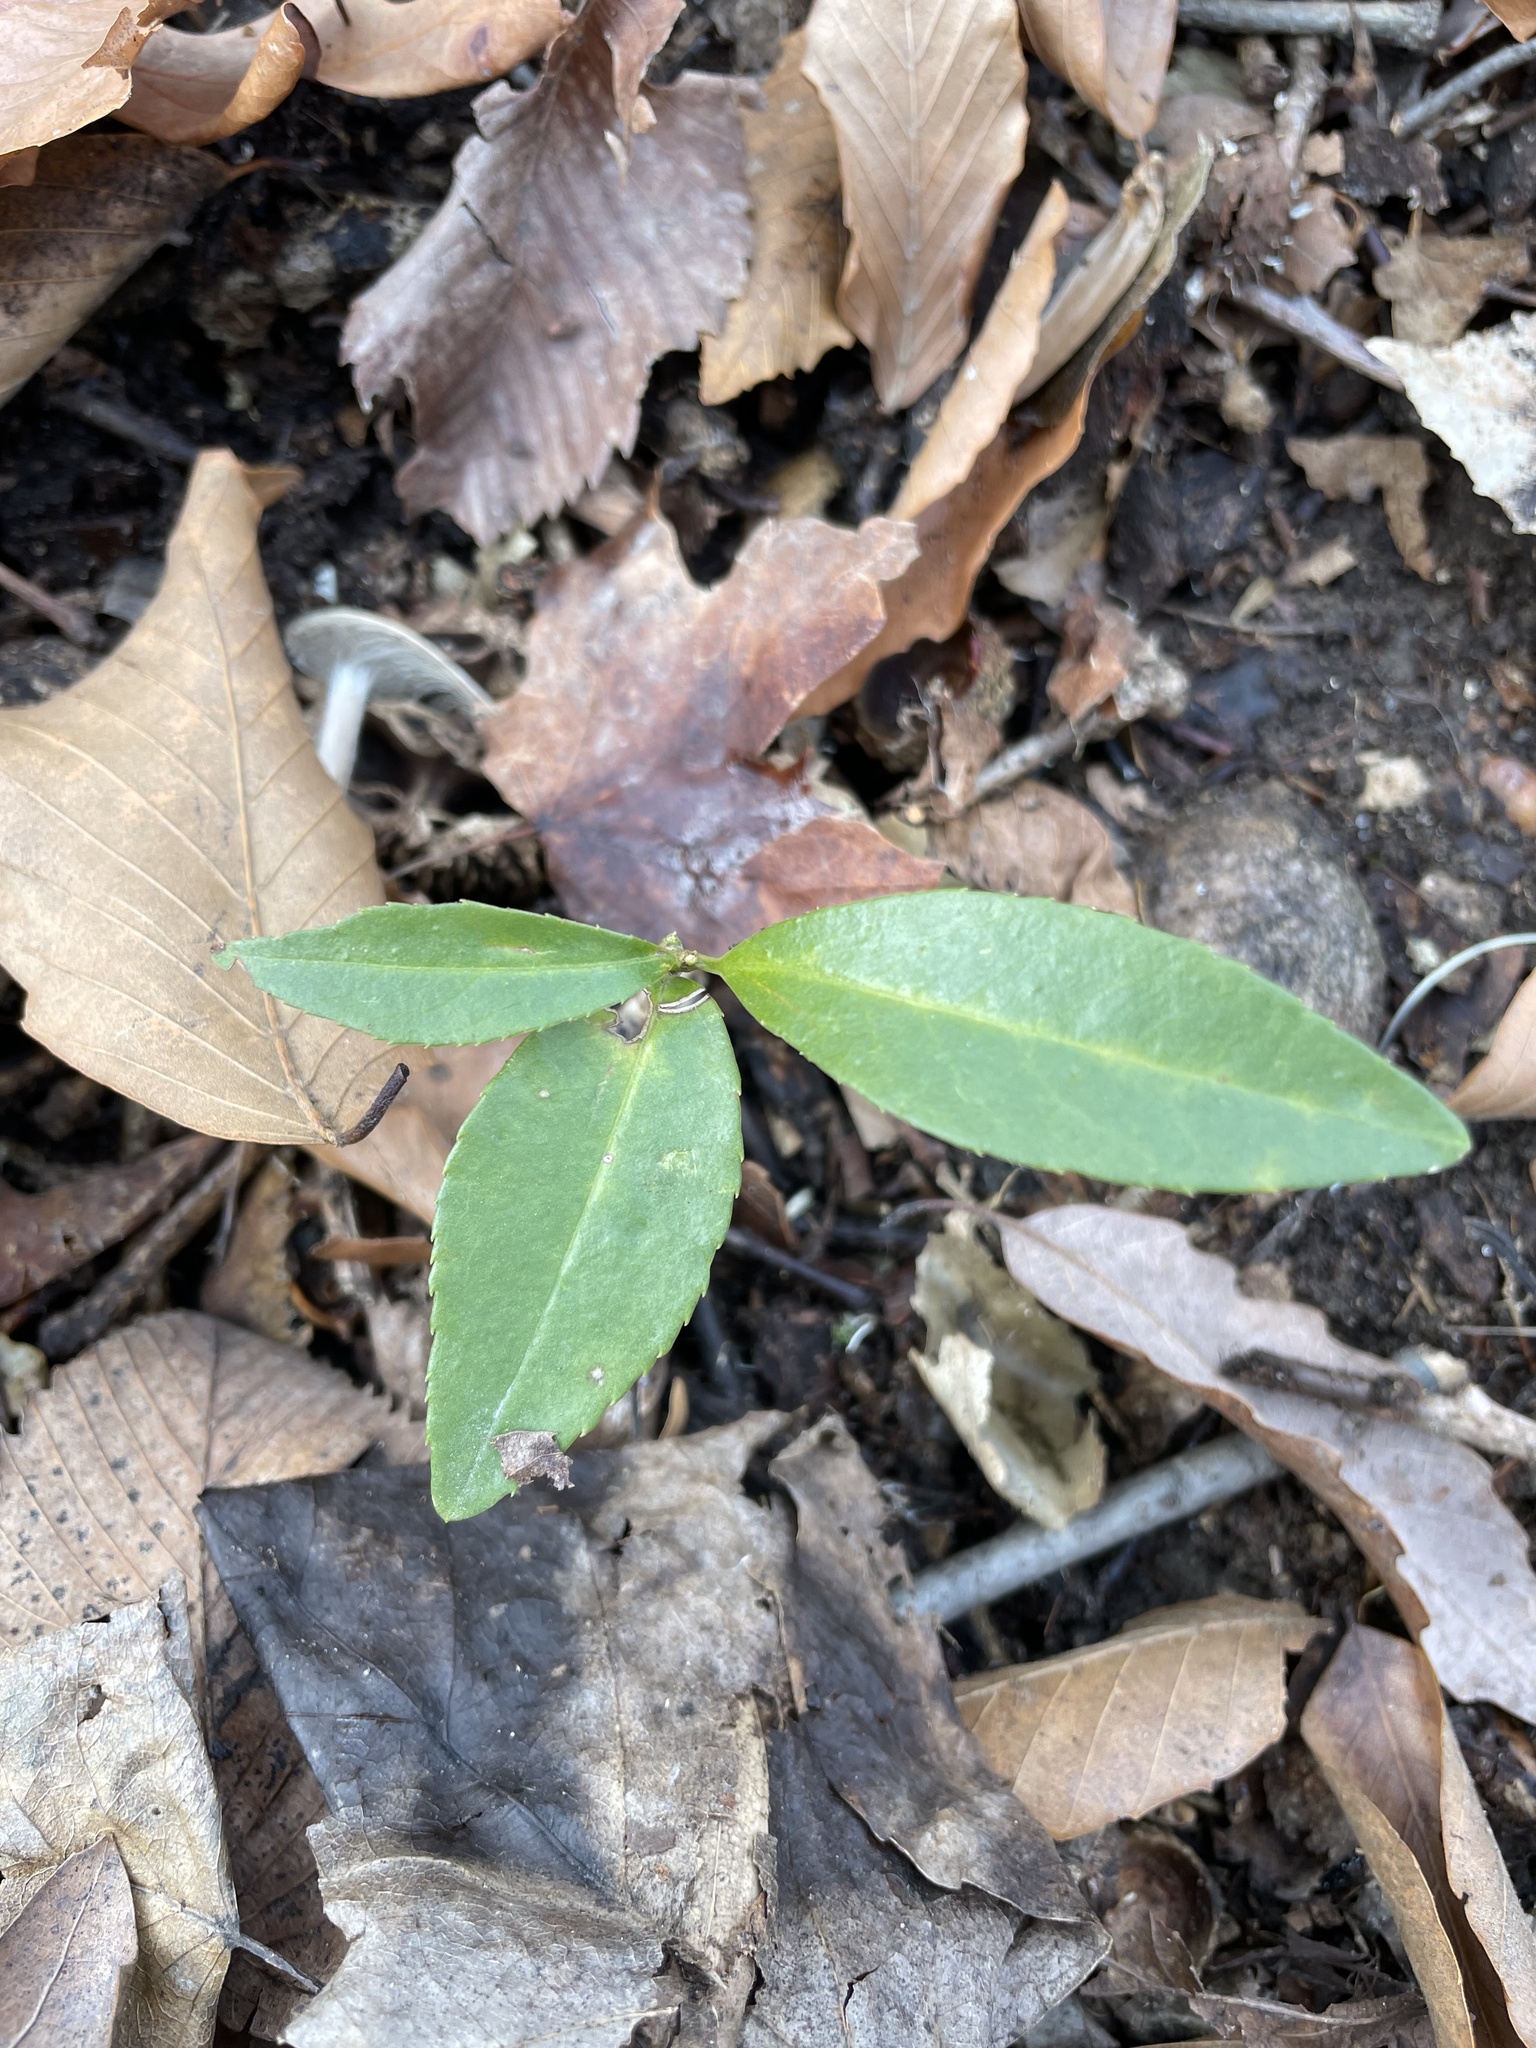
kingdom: Plantae
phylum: Tracheophyta
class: Magnoliopsida
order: Celastrales
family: Celastraceae
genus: Euonymus
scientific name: Euonymus
